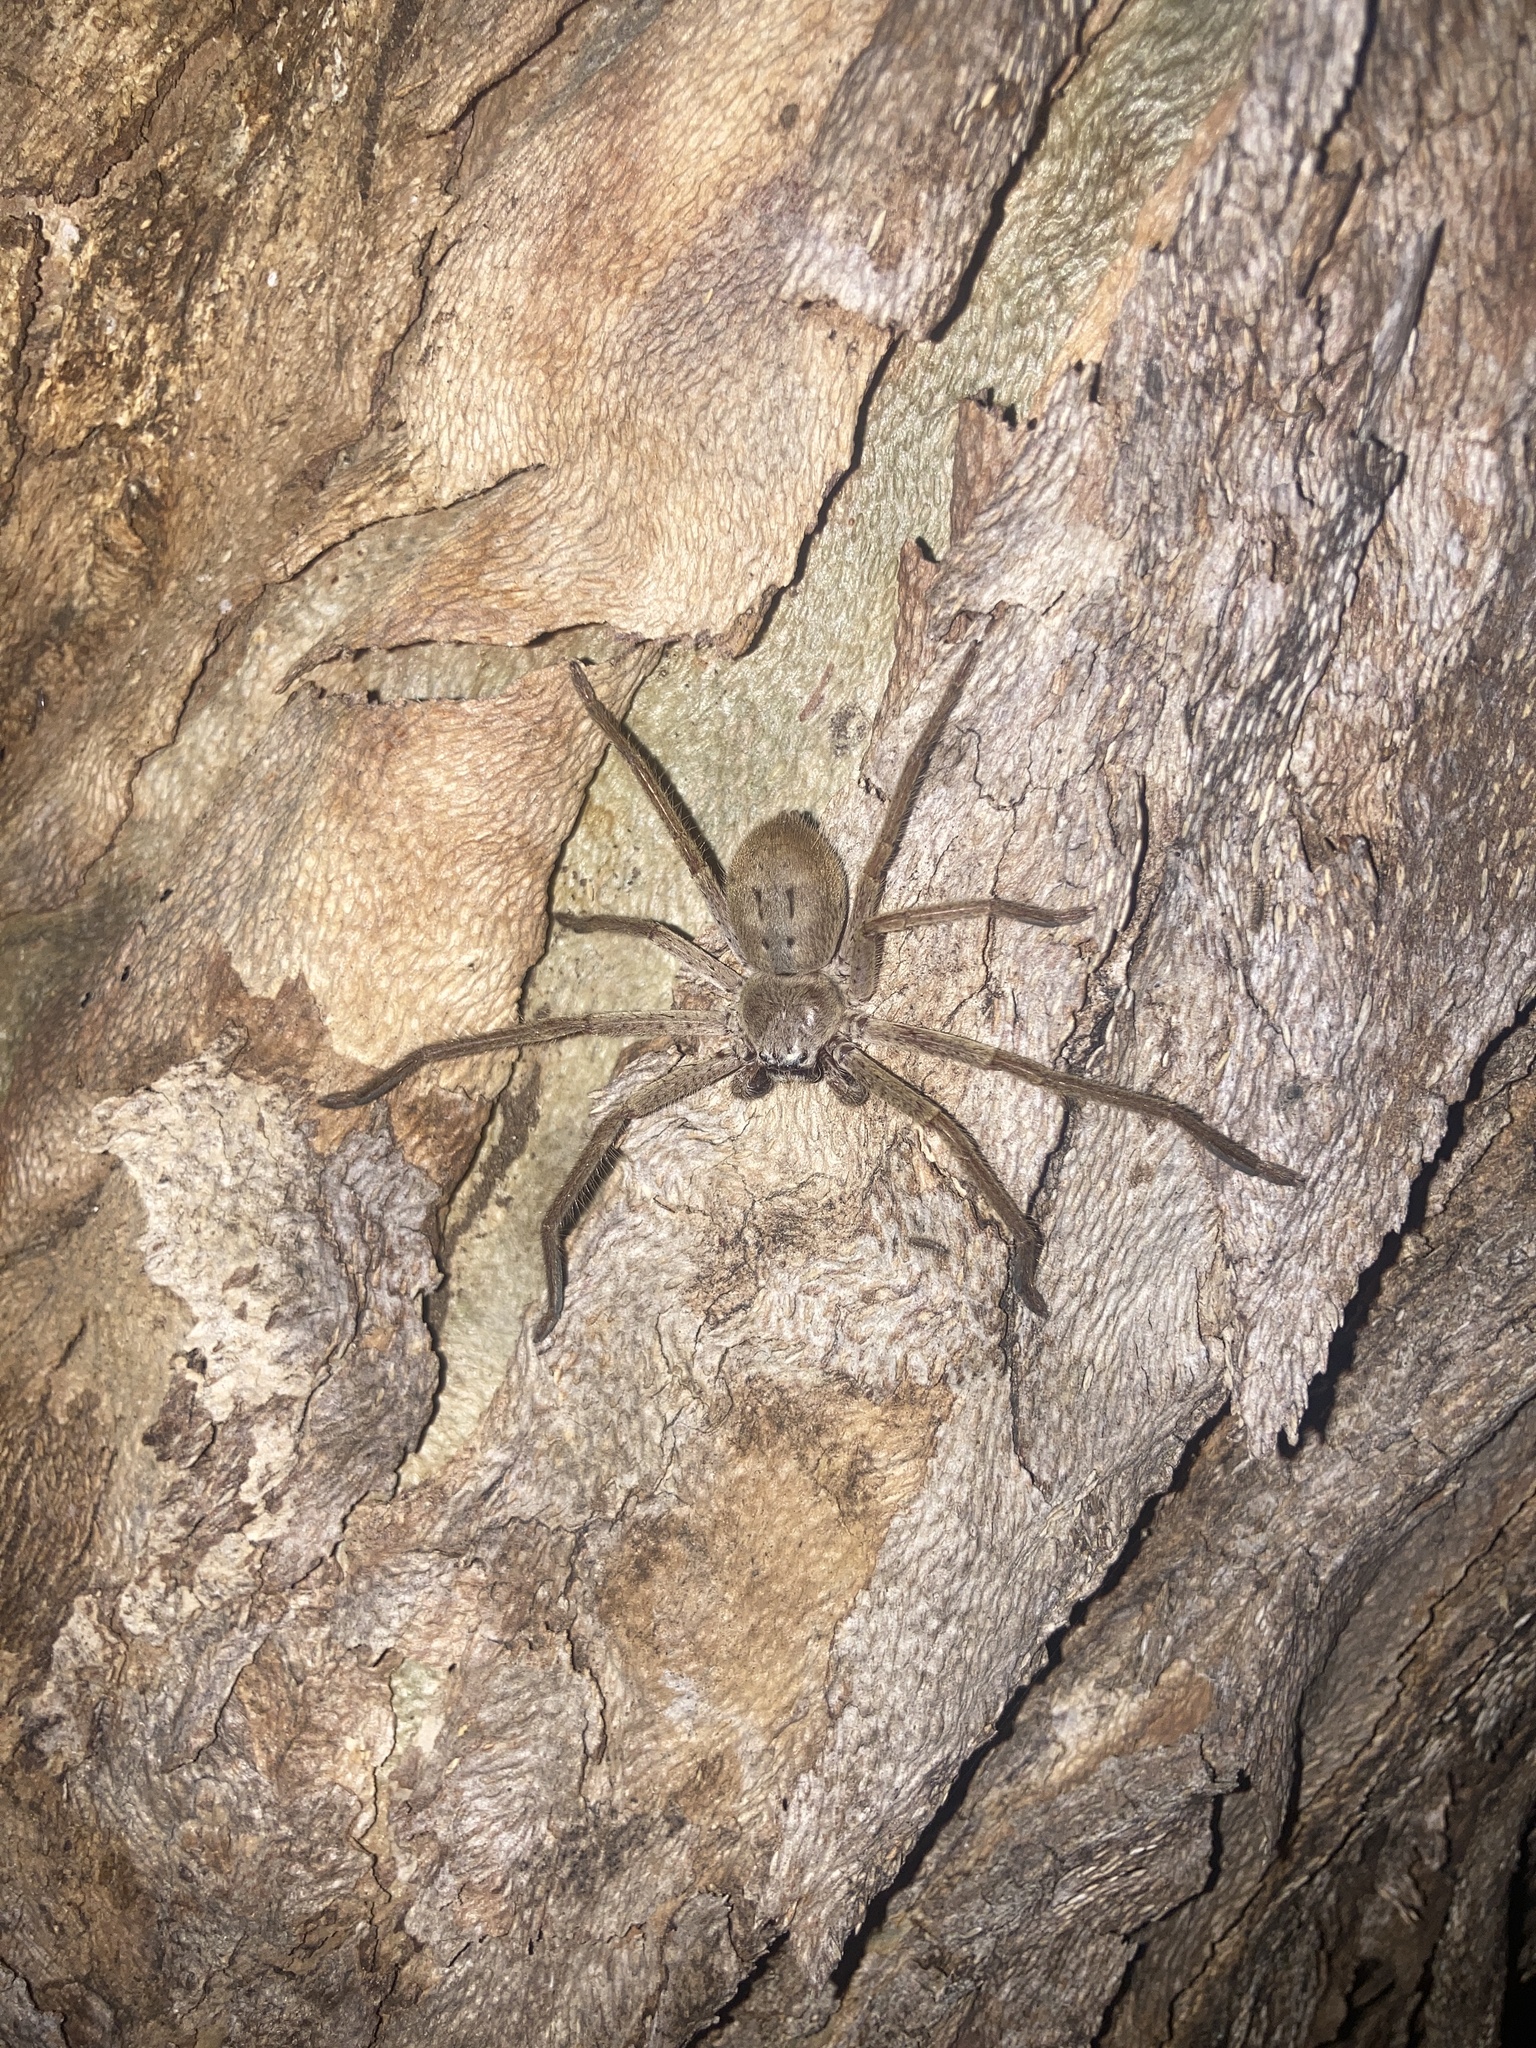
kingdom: Animalia
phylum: Arthropoda
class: Arachnida
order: Araneae
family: Sparassidae
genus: Isopeda
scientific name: Isopeda villosa
